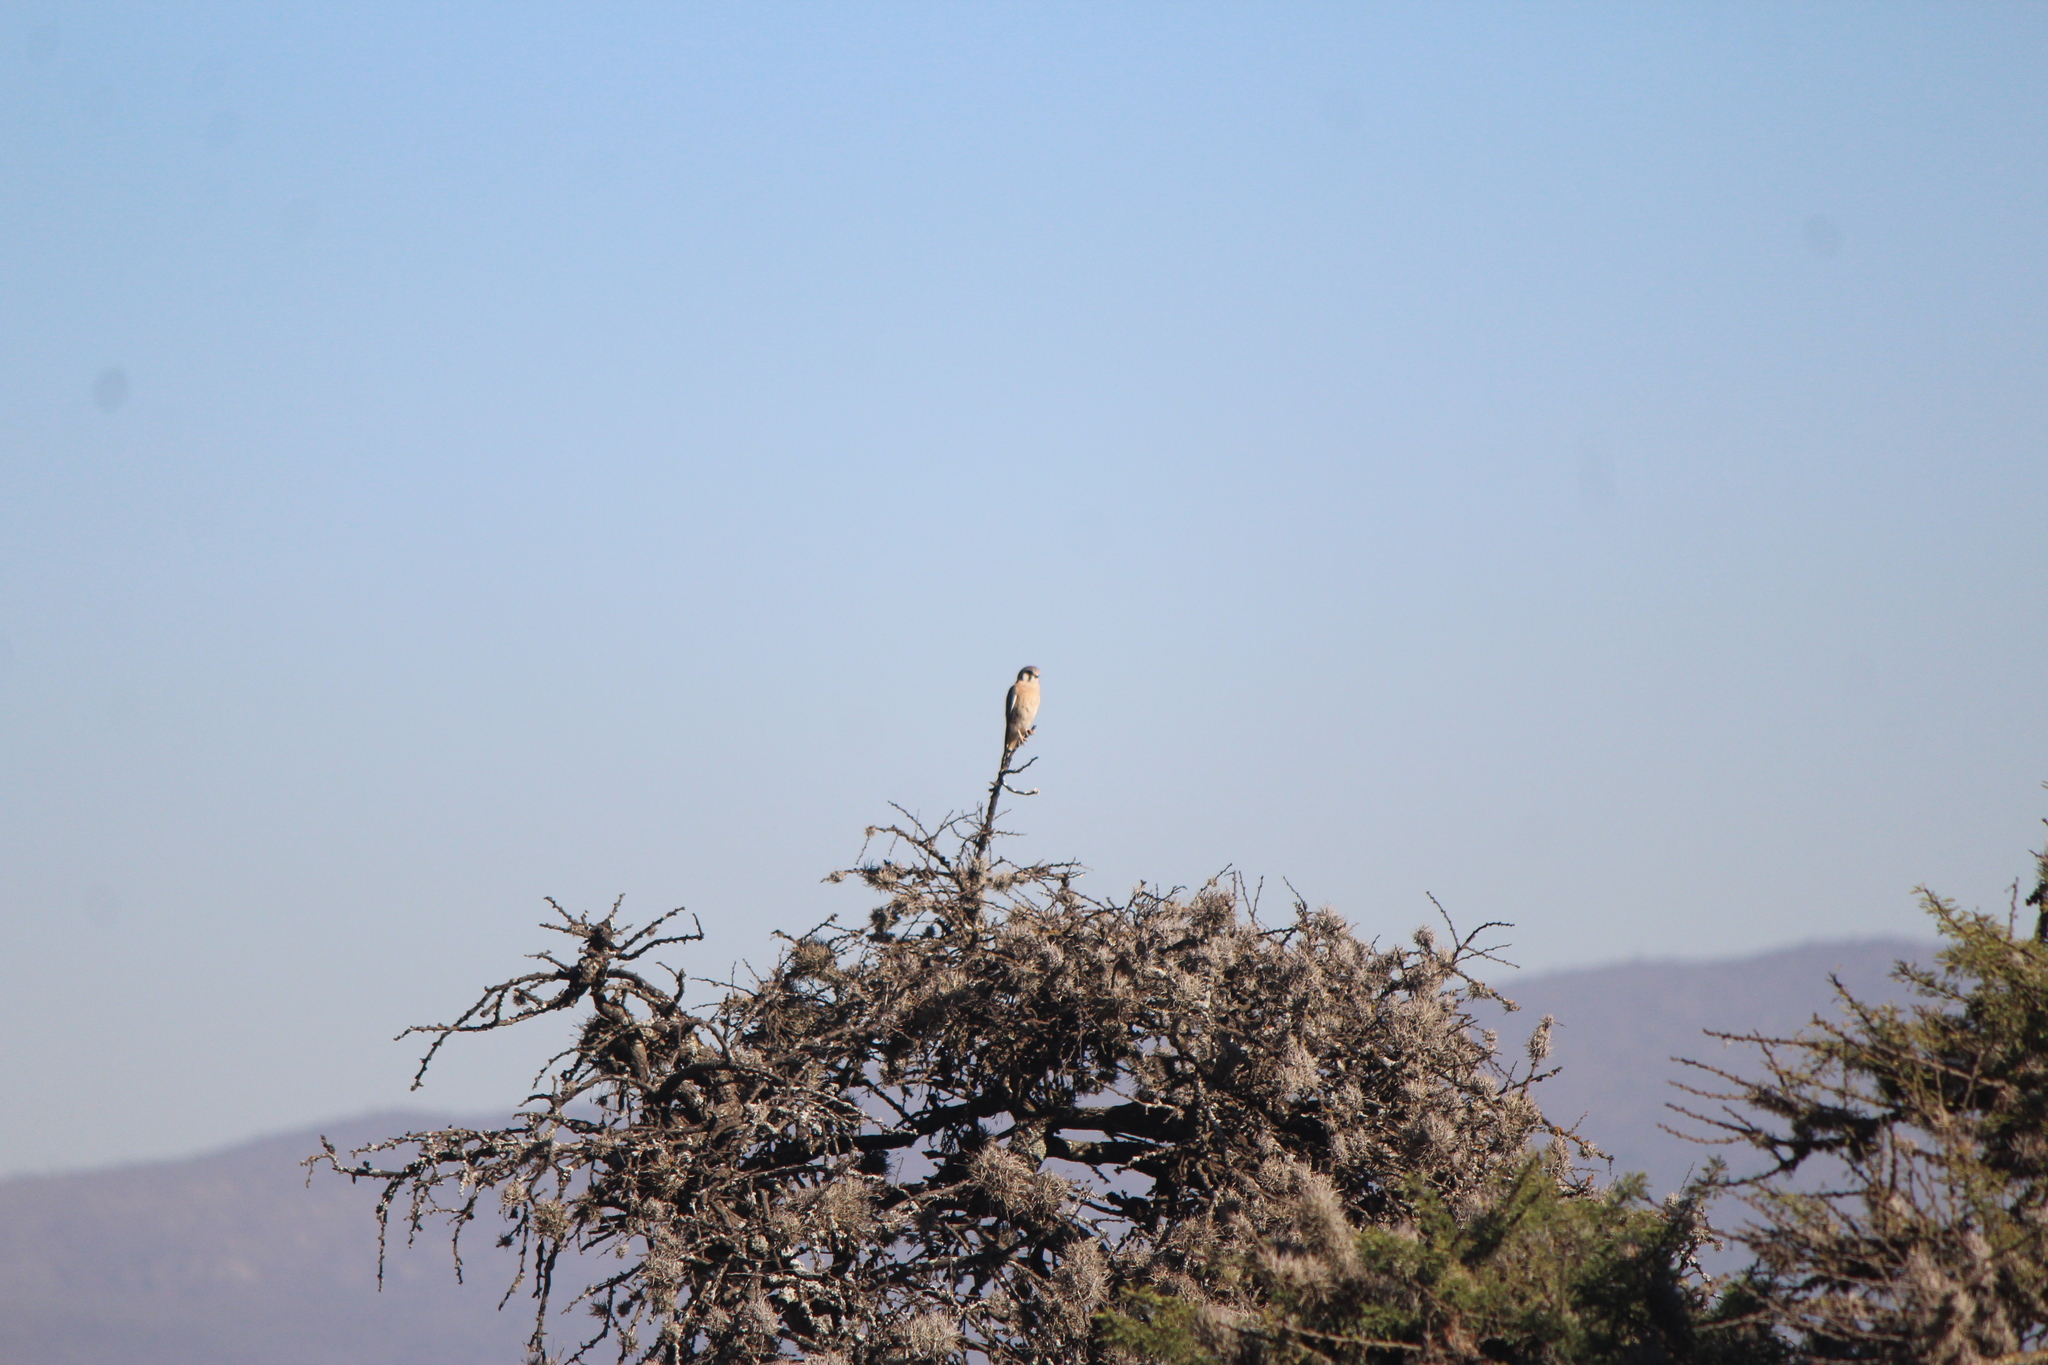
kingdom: Animalia
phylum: Chordata
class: Aves
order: Falconiformes
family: Falconidae
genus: Falco
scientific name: Falco sparverius
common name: American kestrel
